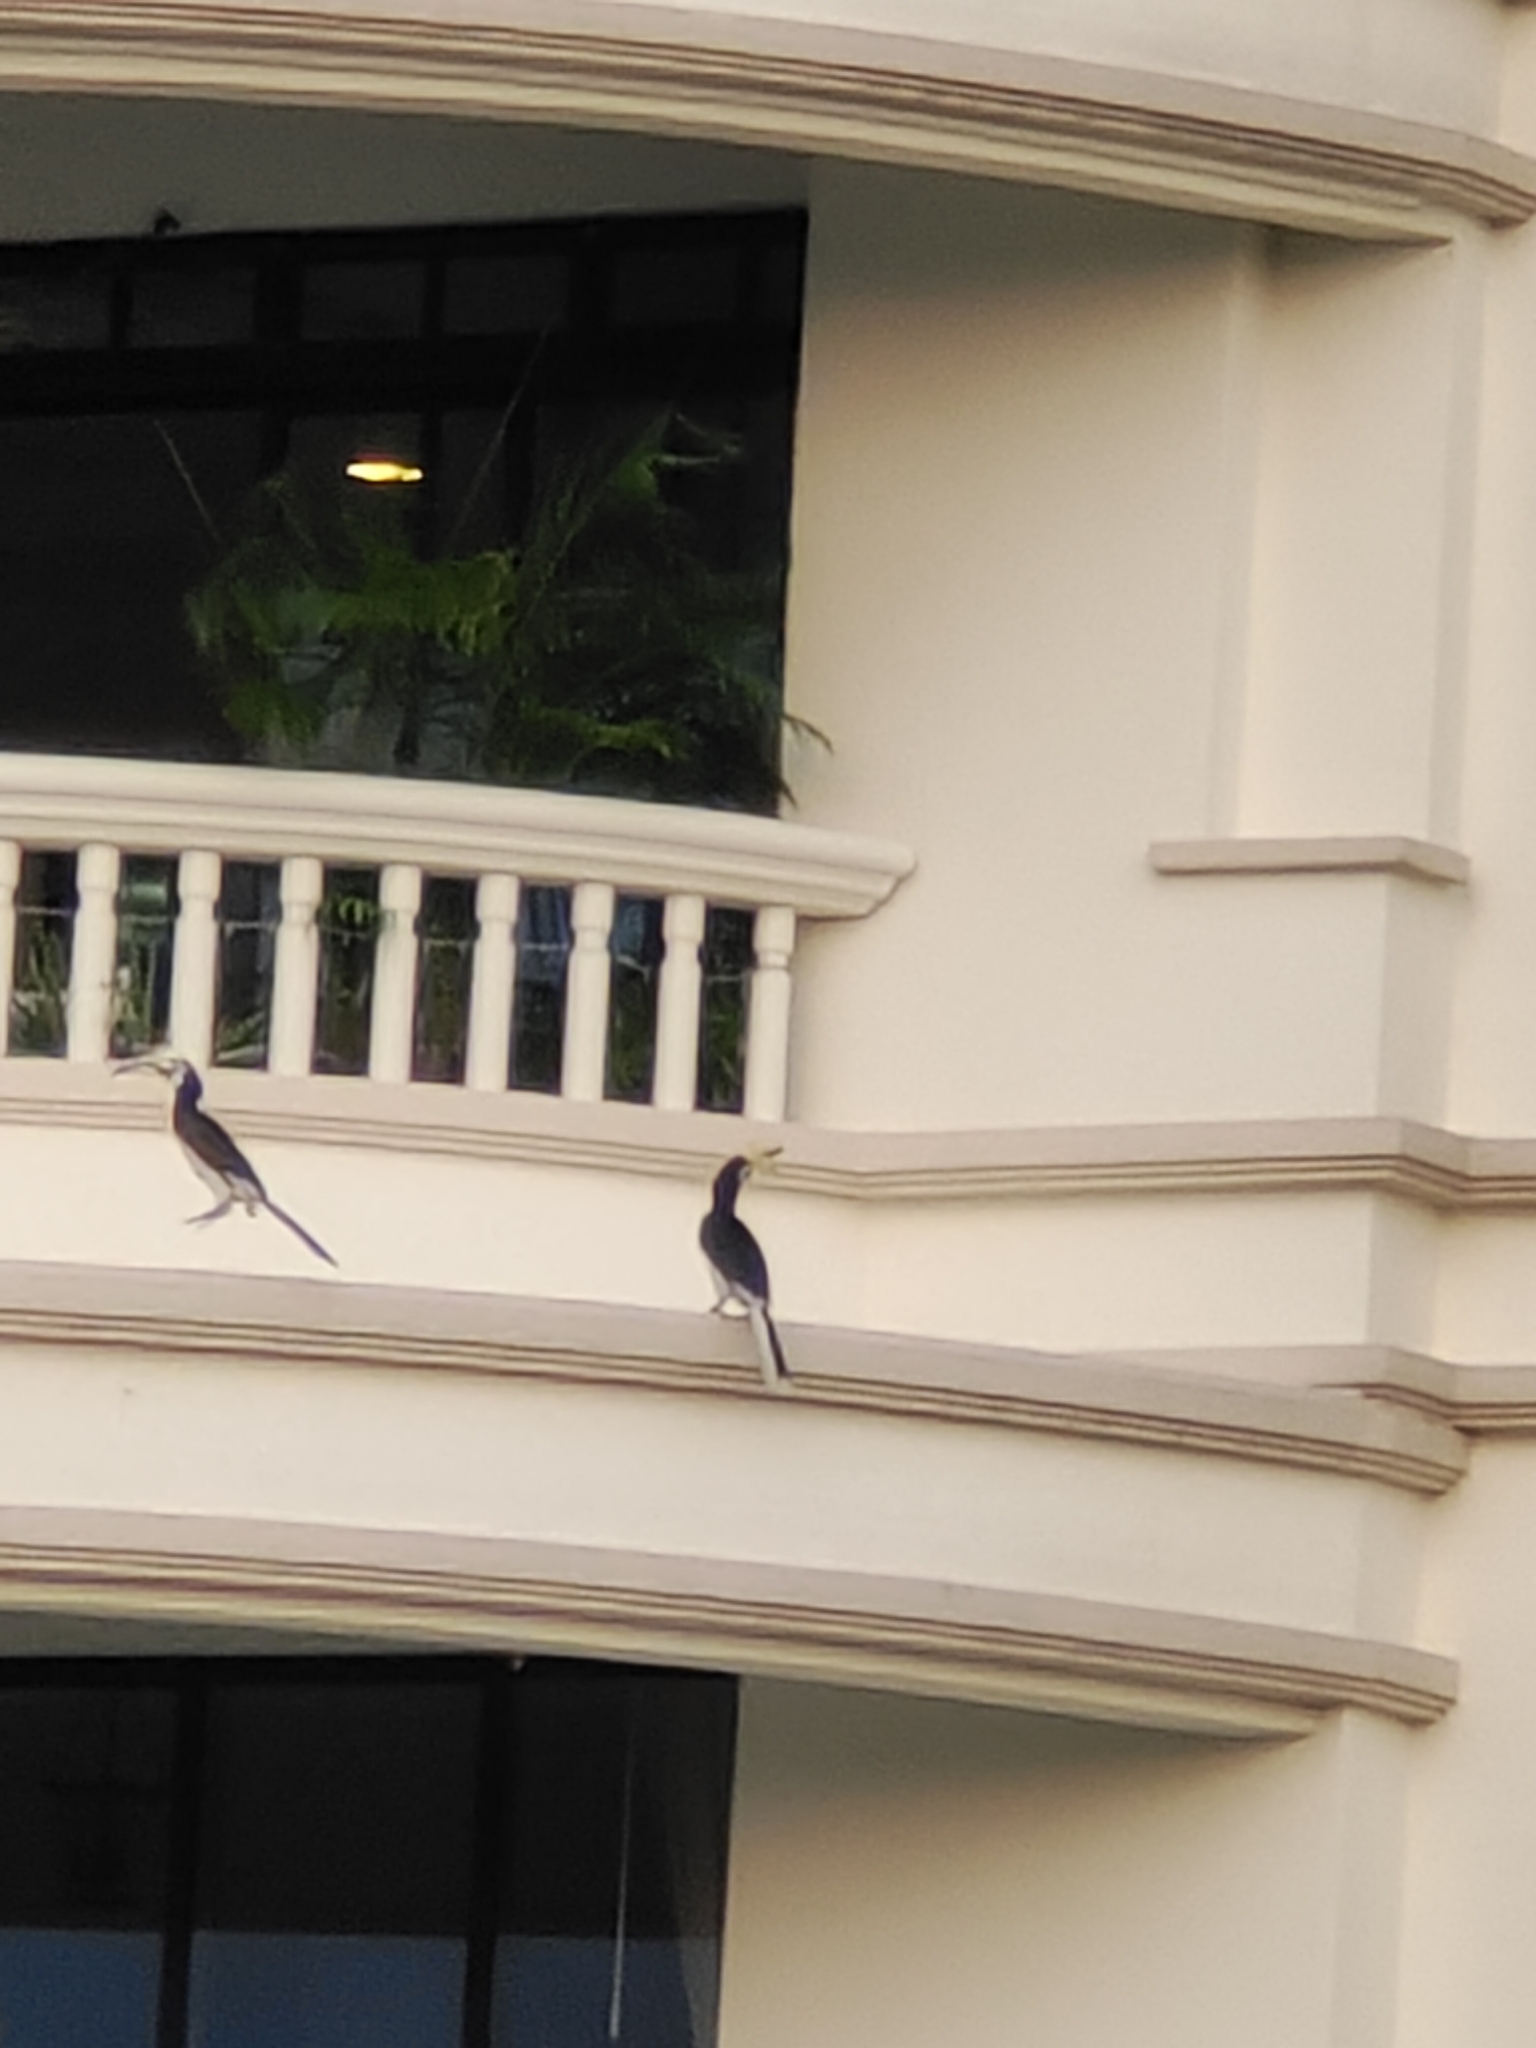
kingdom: Animalia
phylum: Chordata
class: Aves
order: Bucerotiformes
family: Bucerotidae
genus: Anthracoceros
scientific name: Anthracoceros albirostris
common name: Oriental pied-hornbill
